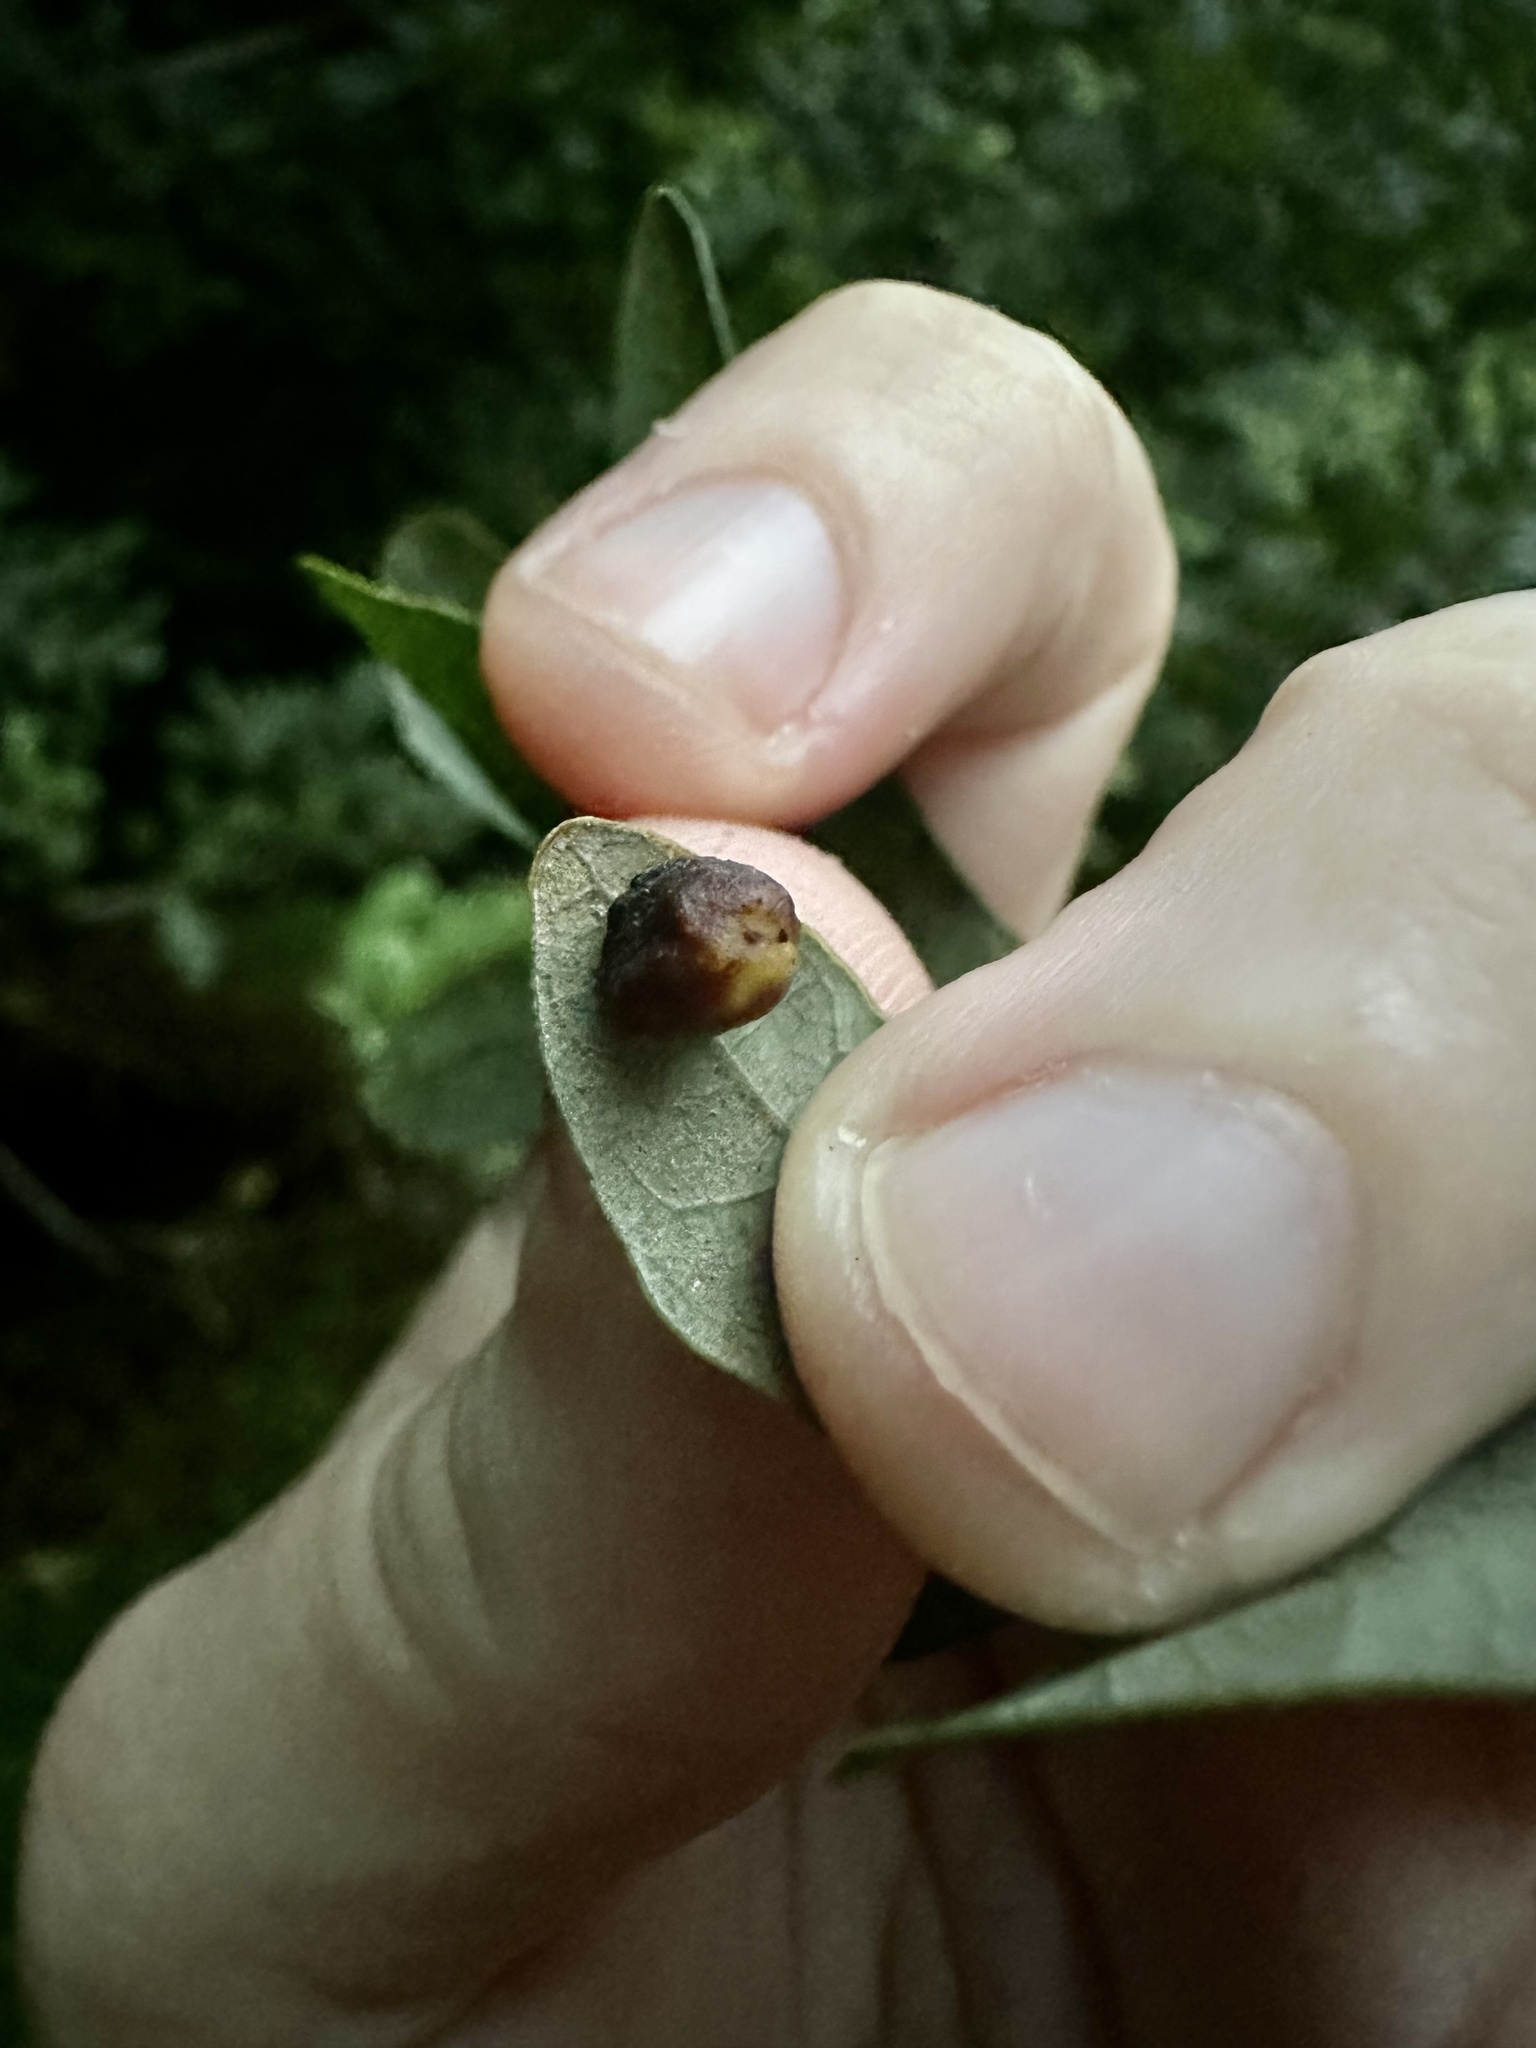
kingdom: Animalia
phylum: Arthropoda
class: Insecta
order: Hymenoptera
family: Cynipidae
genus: Andricus
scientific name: Andricus
